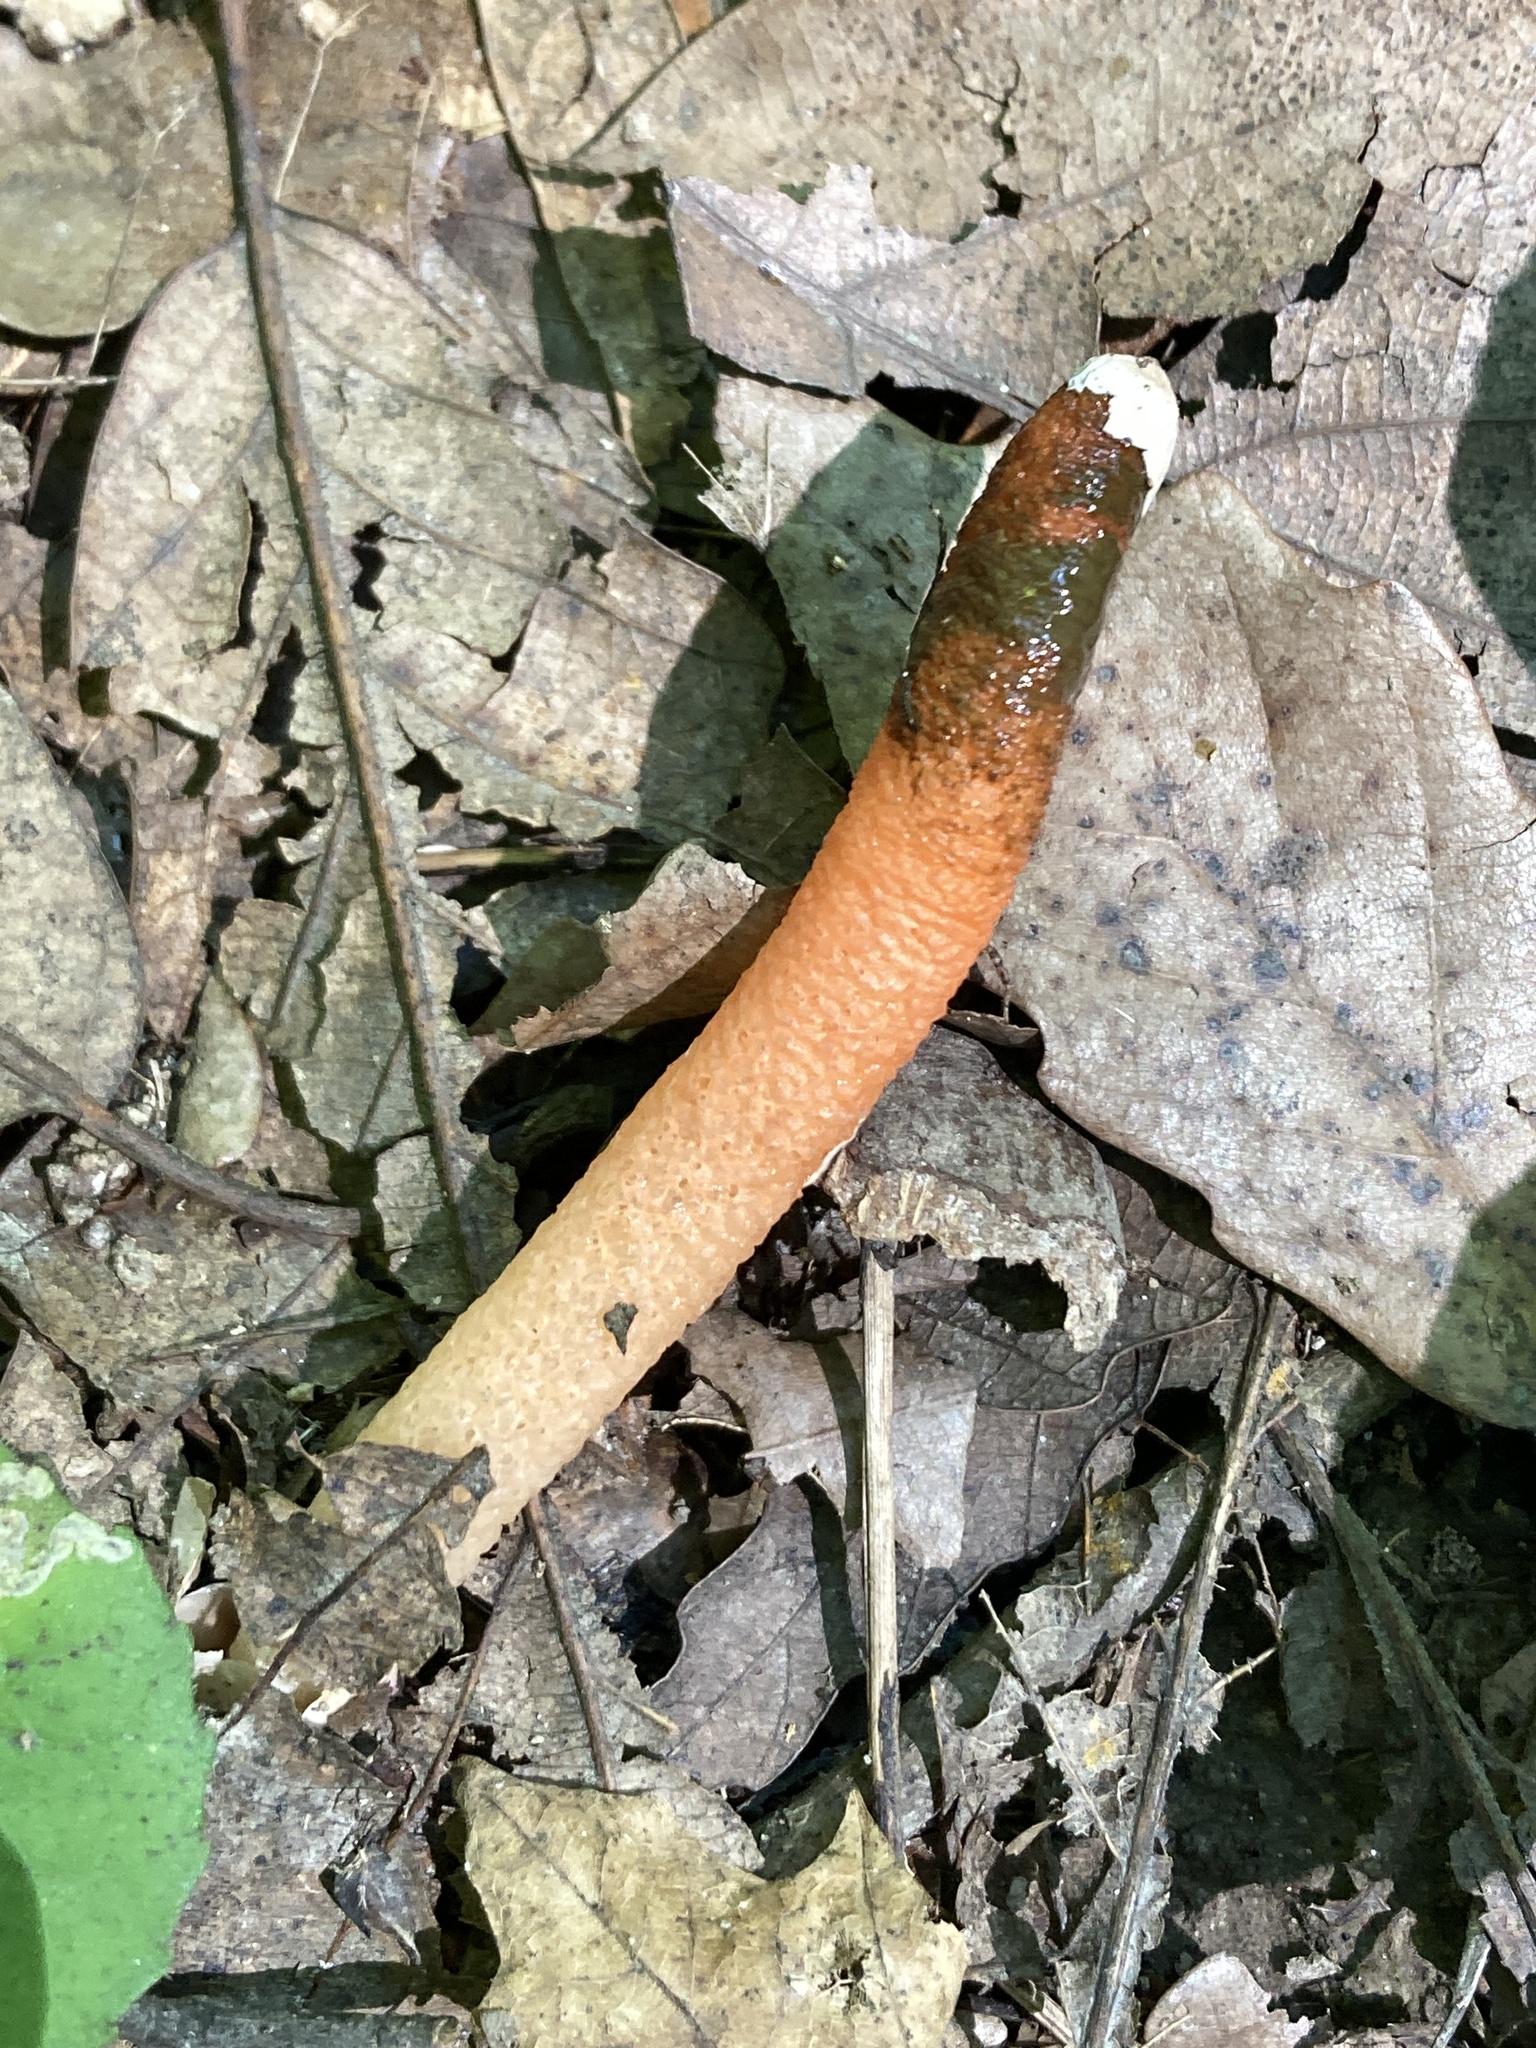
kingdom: Fungi
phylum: Basidiomycota
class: Agaricomycetes
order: Phallales
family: Phallaceae
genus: Mutinus
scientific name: Mutinus elegans
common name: Devil's dipstick
